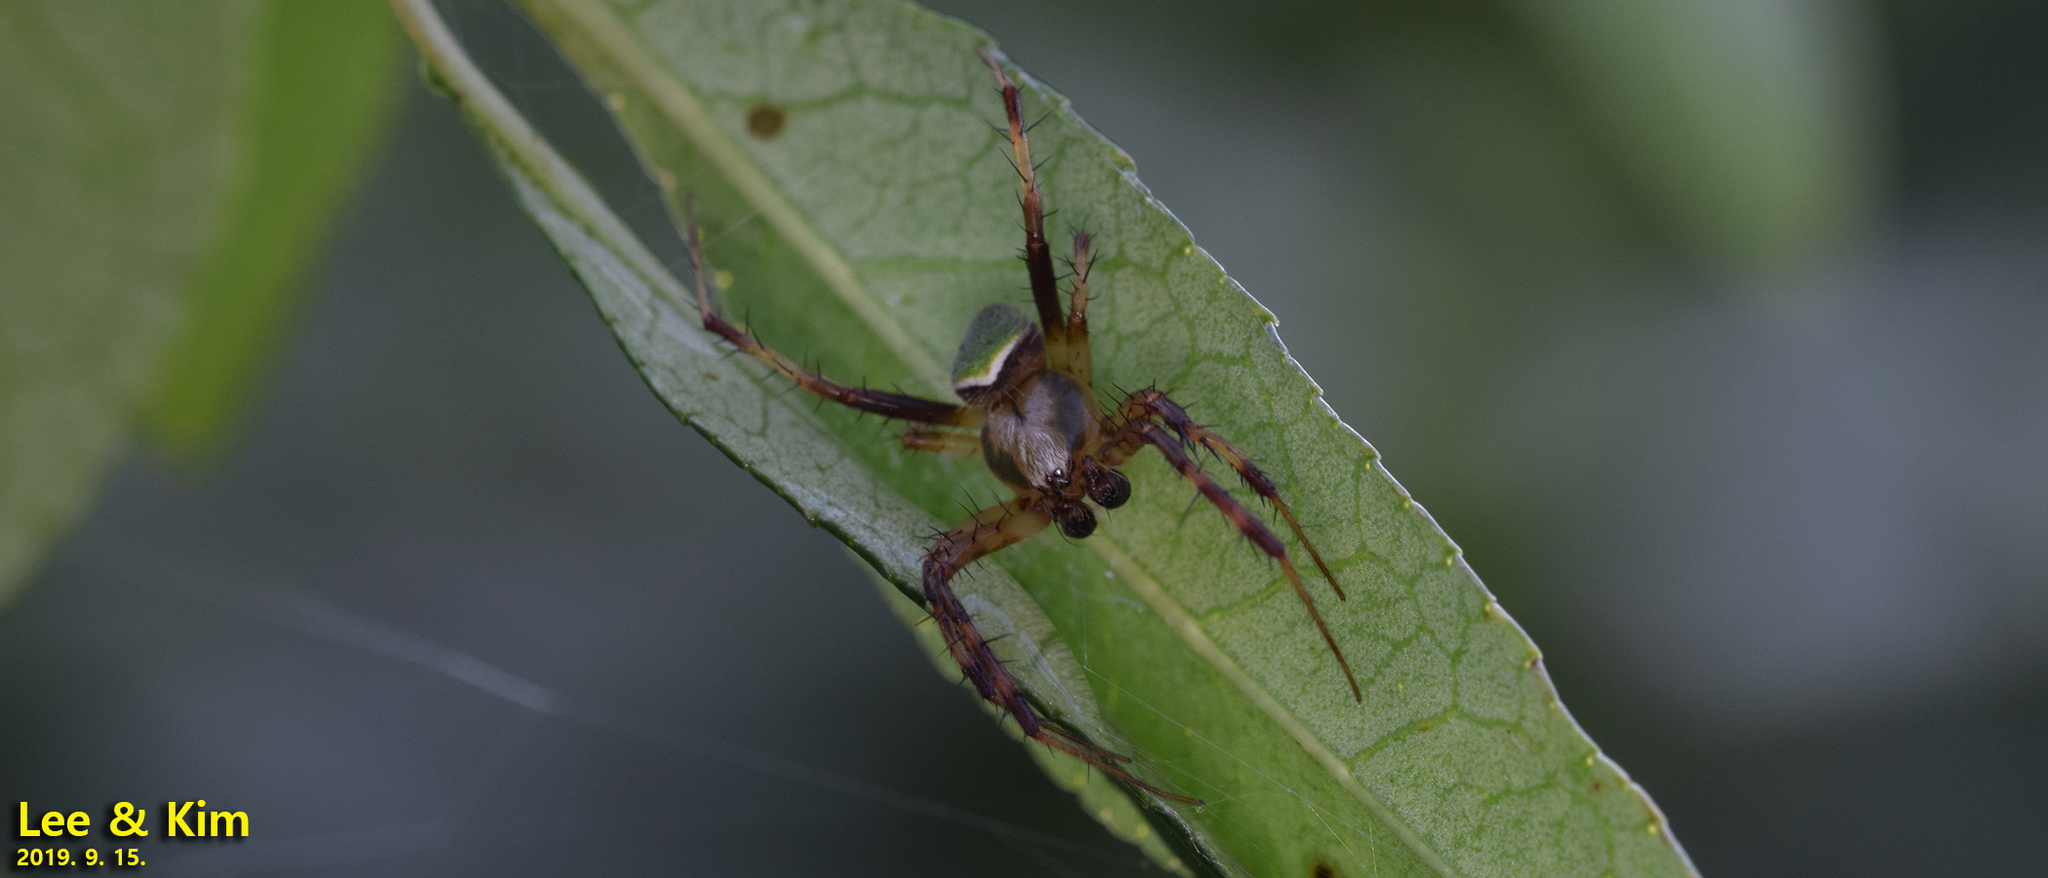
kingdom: Animalia
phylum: Arthropoda
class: Arachnida
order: Araneae
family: Araneidae
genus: Neoscona
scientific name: Neoscona mellotteei
